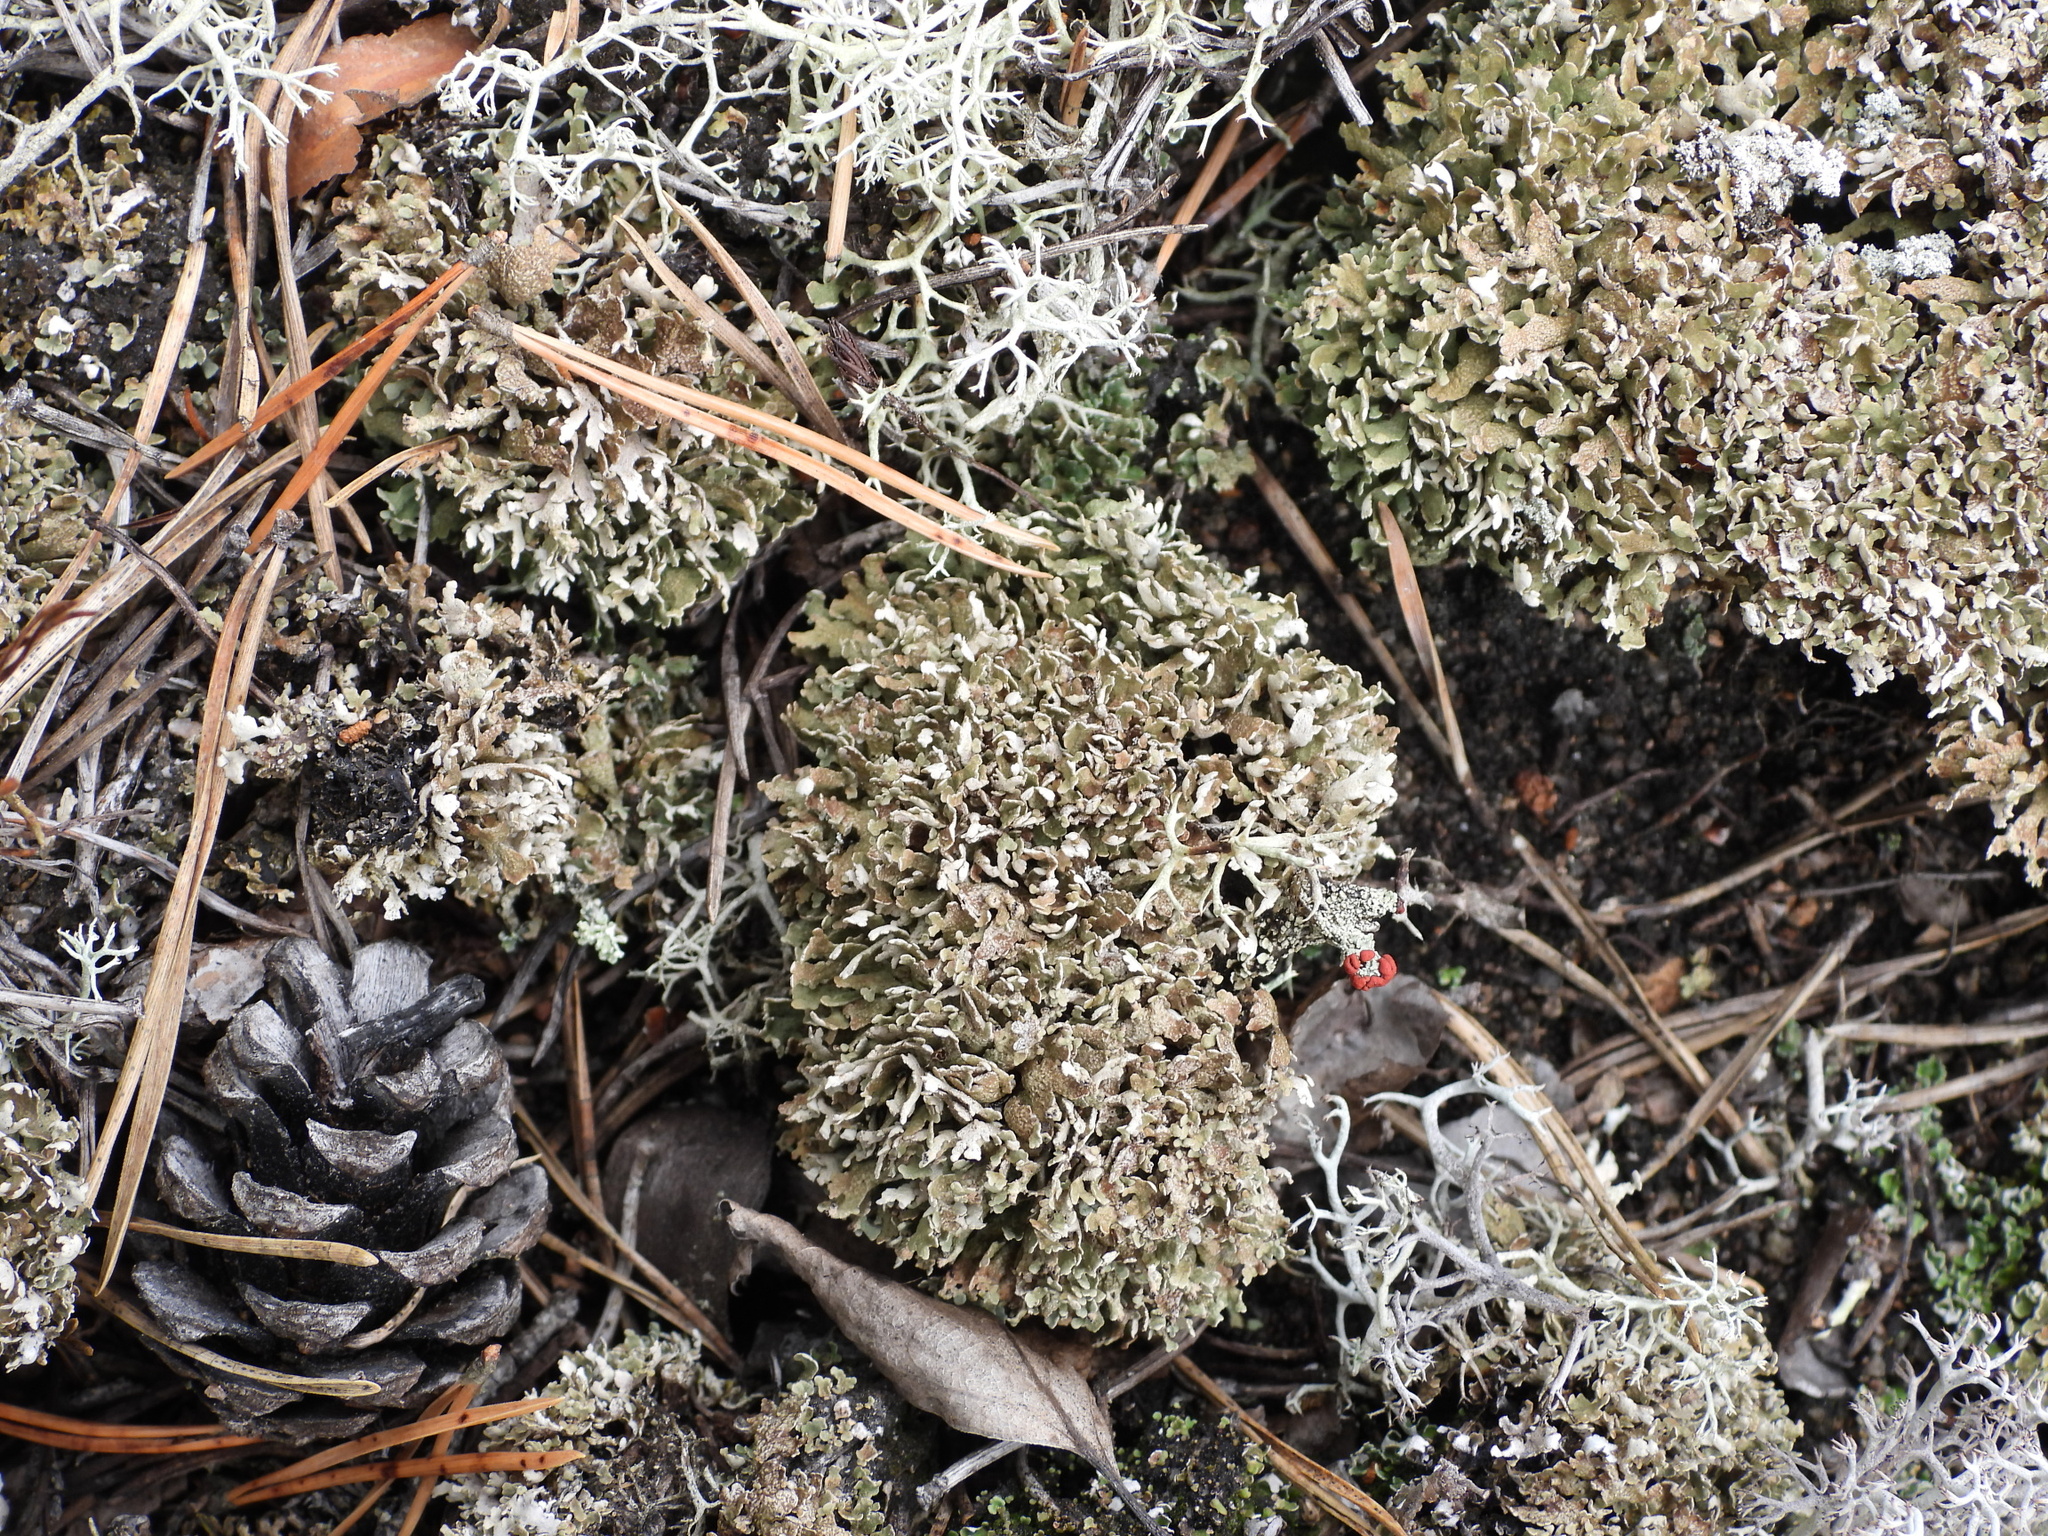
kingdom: Fungi
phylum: Ascomycota
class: Lecanoromycetes
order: Lecanorales
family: Cladoniaceae
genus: Cladonia
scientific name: Cladonia strepsilis
